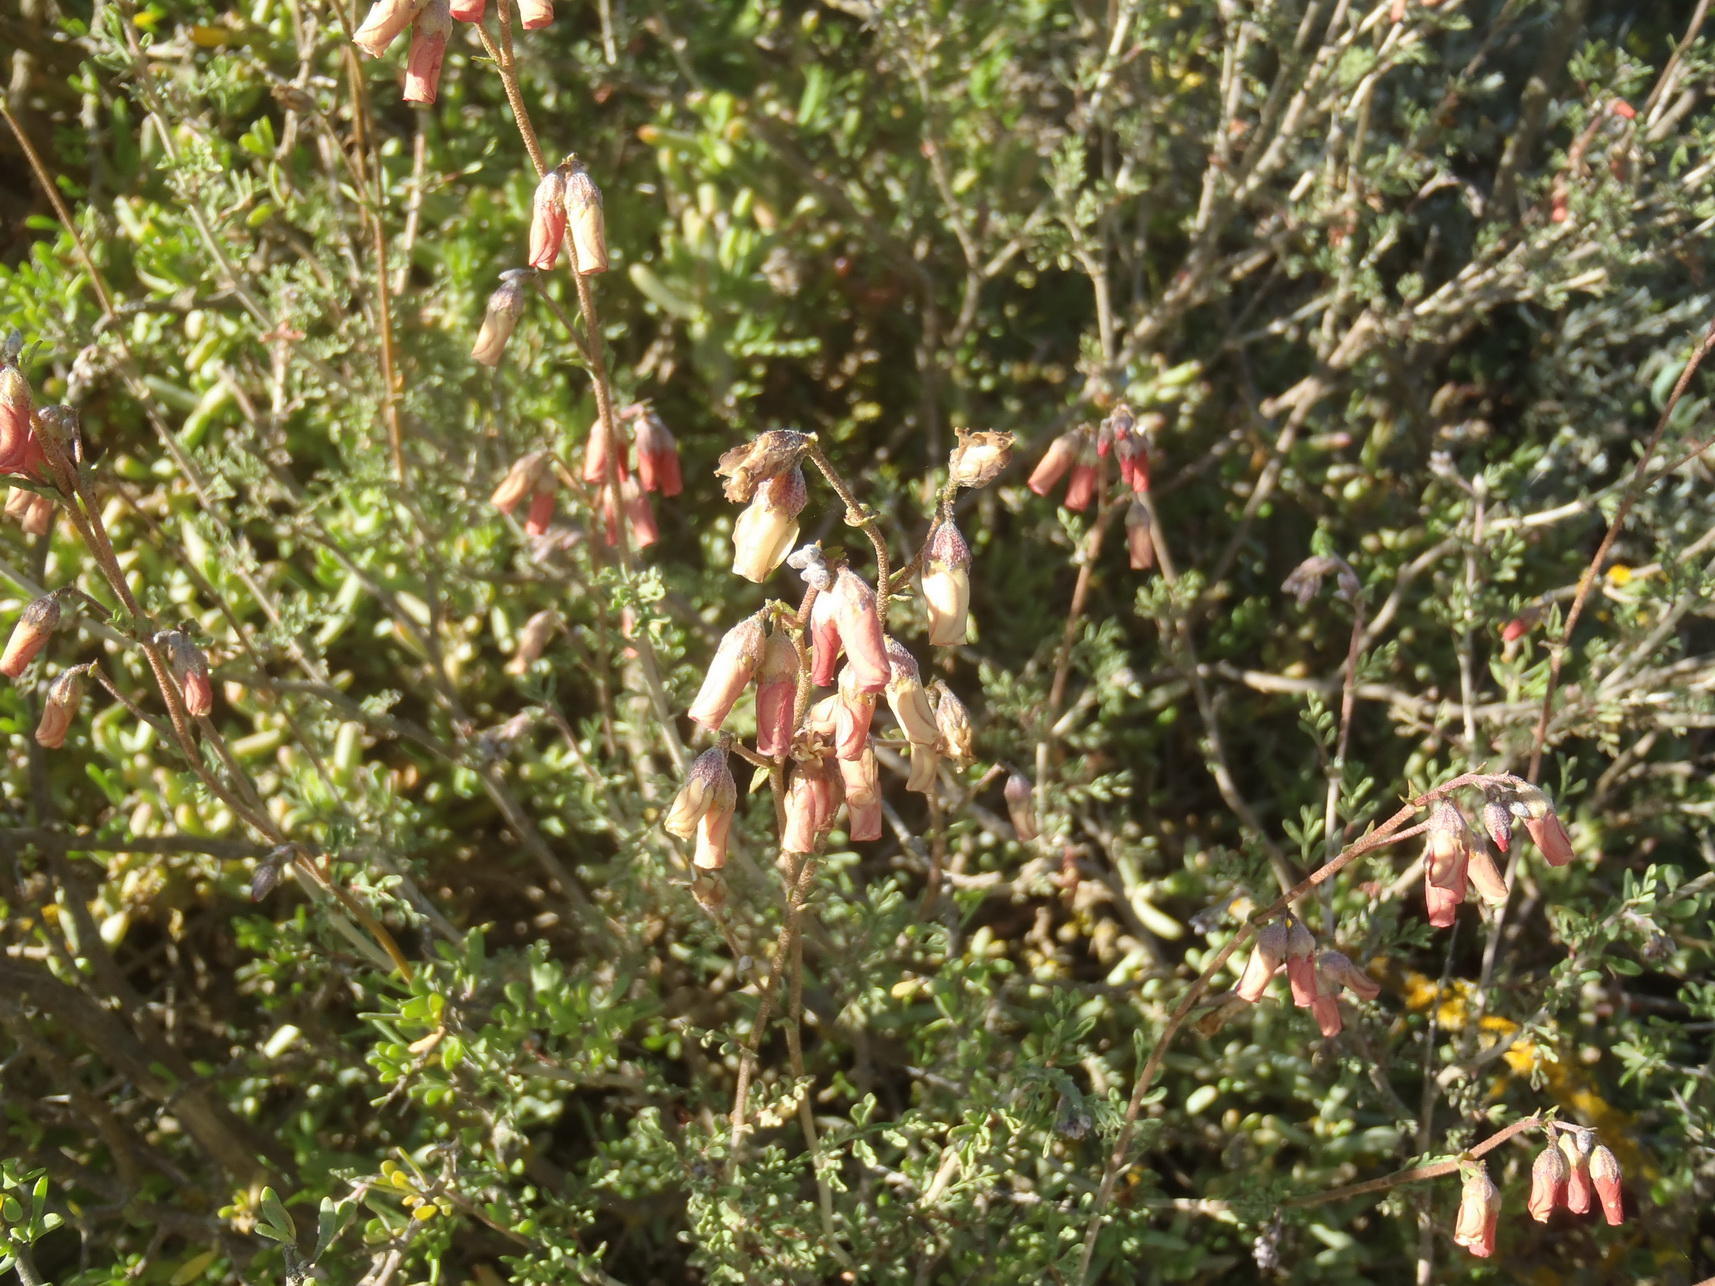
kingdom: Plantae
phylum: Tracheophyta
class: Magnoliopsida
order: Malvales
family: Malvaceae
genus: Hermannia
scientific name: Hermannia pulverata
